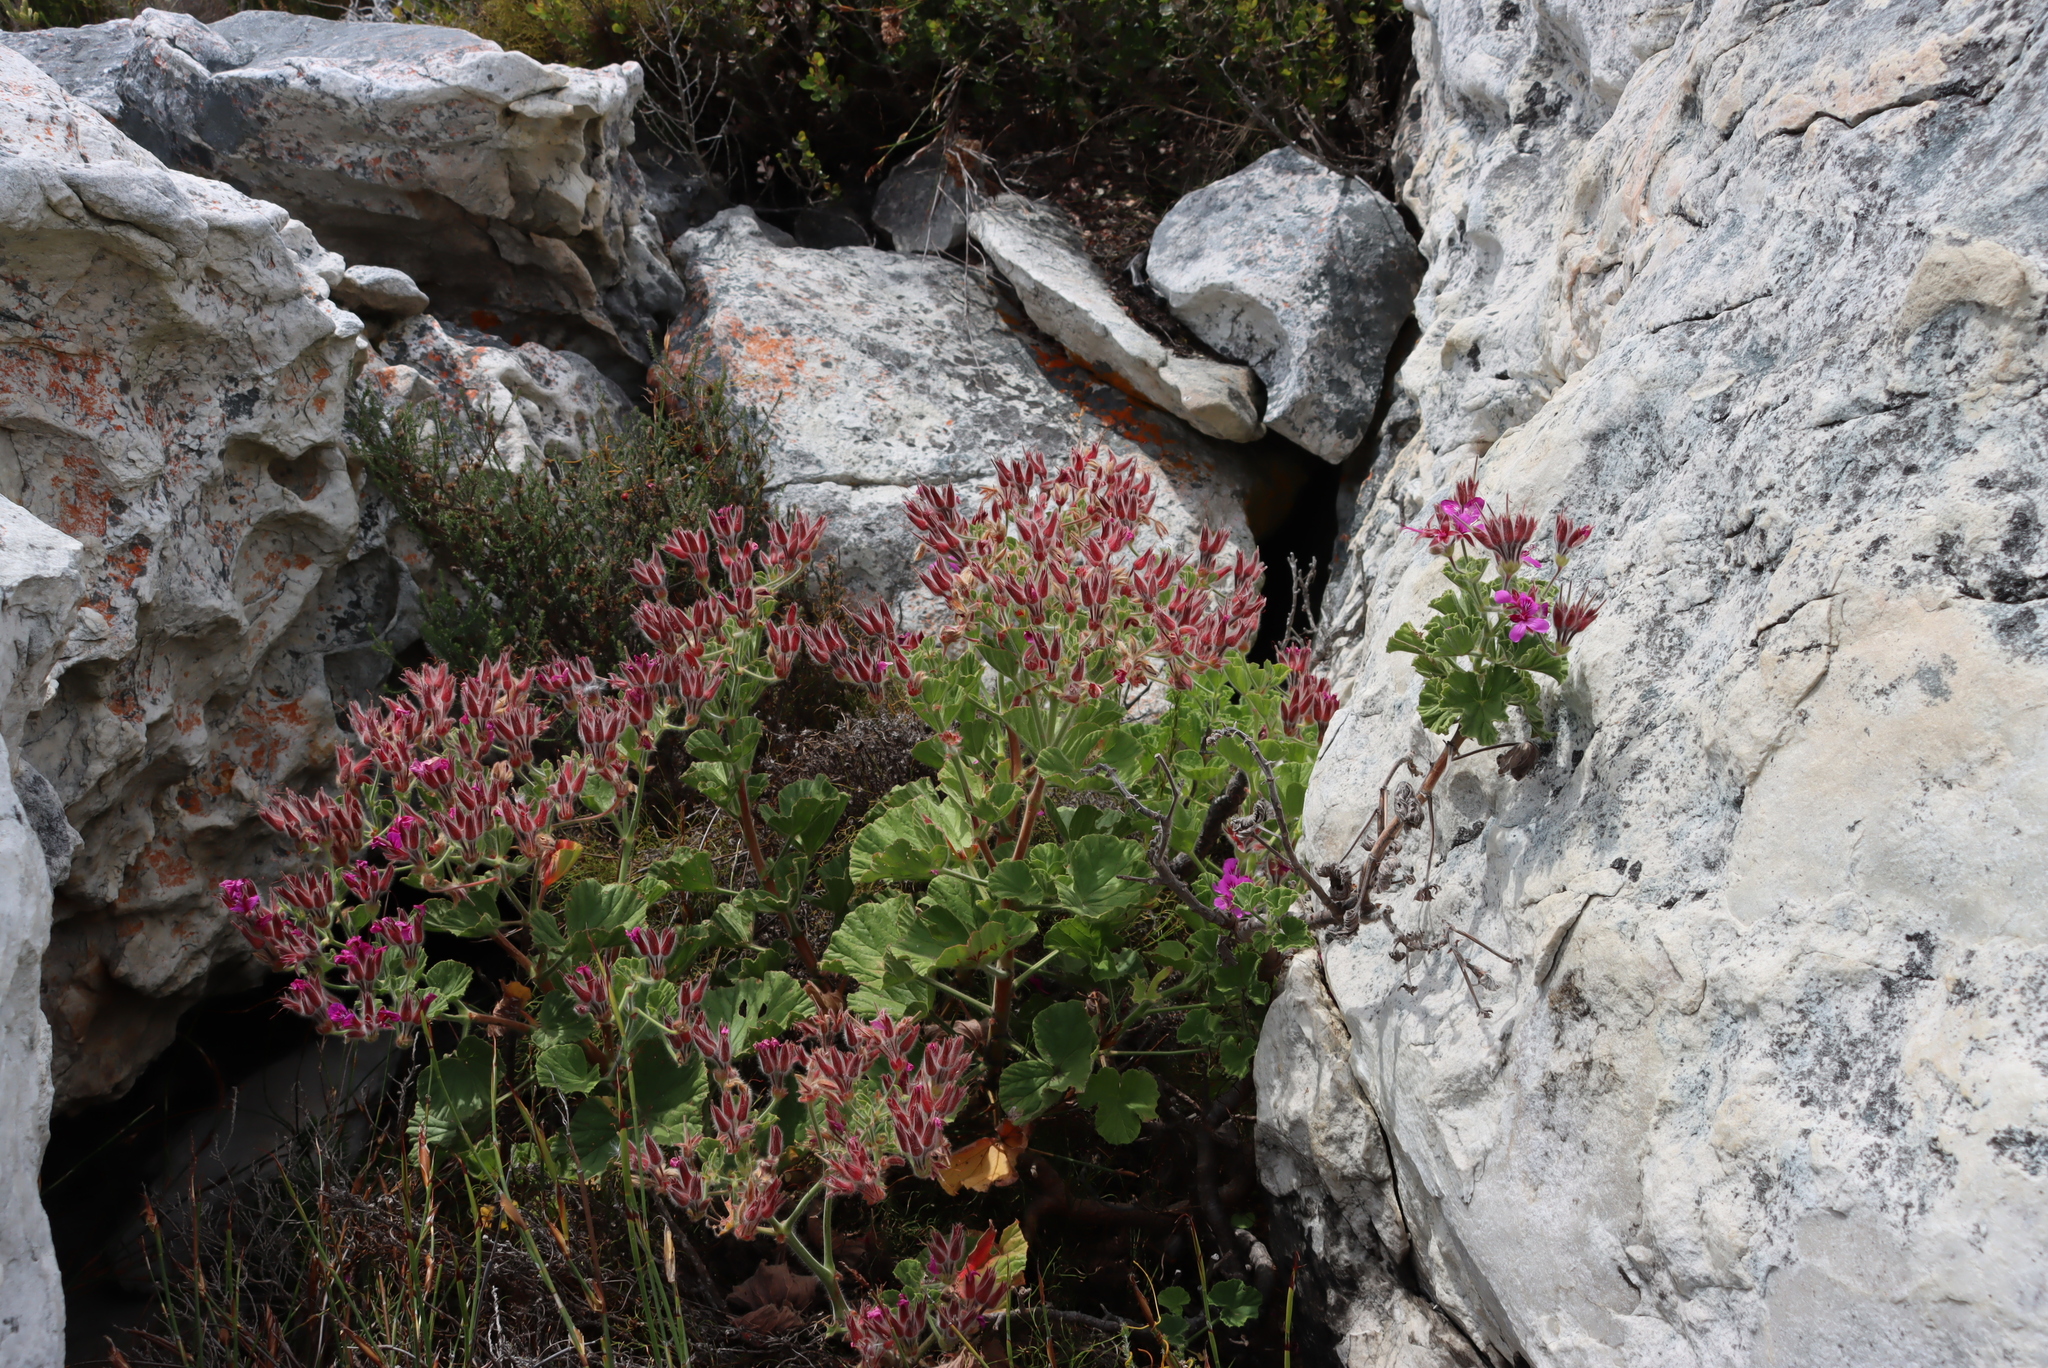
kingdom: Plantae
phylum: Tracheophyta
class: Magnoliopsida
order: Geraniales
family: Geraniaceae
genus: Pelargonium
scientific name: Pelargonium cucullatum
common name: Tree pelargonium
